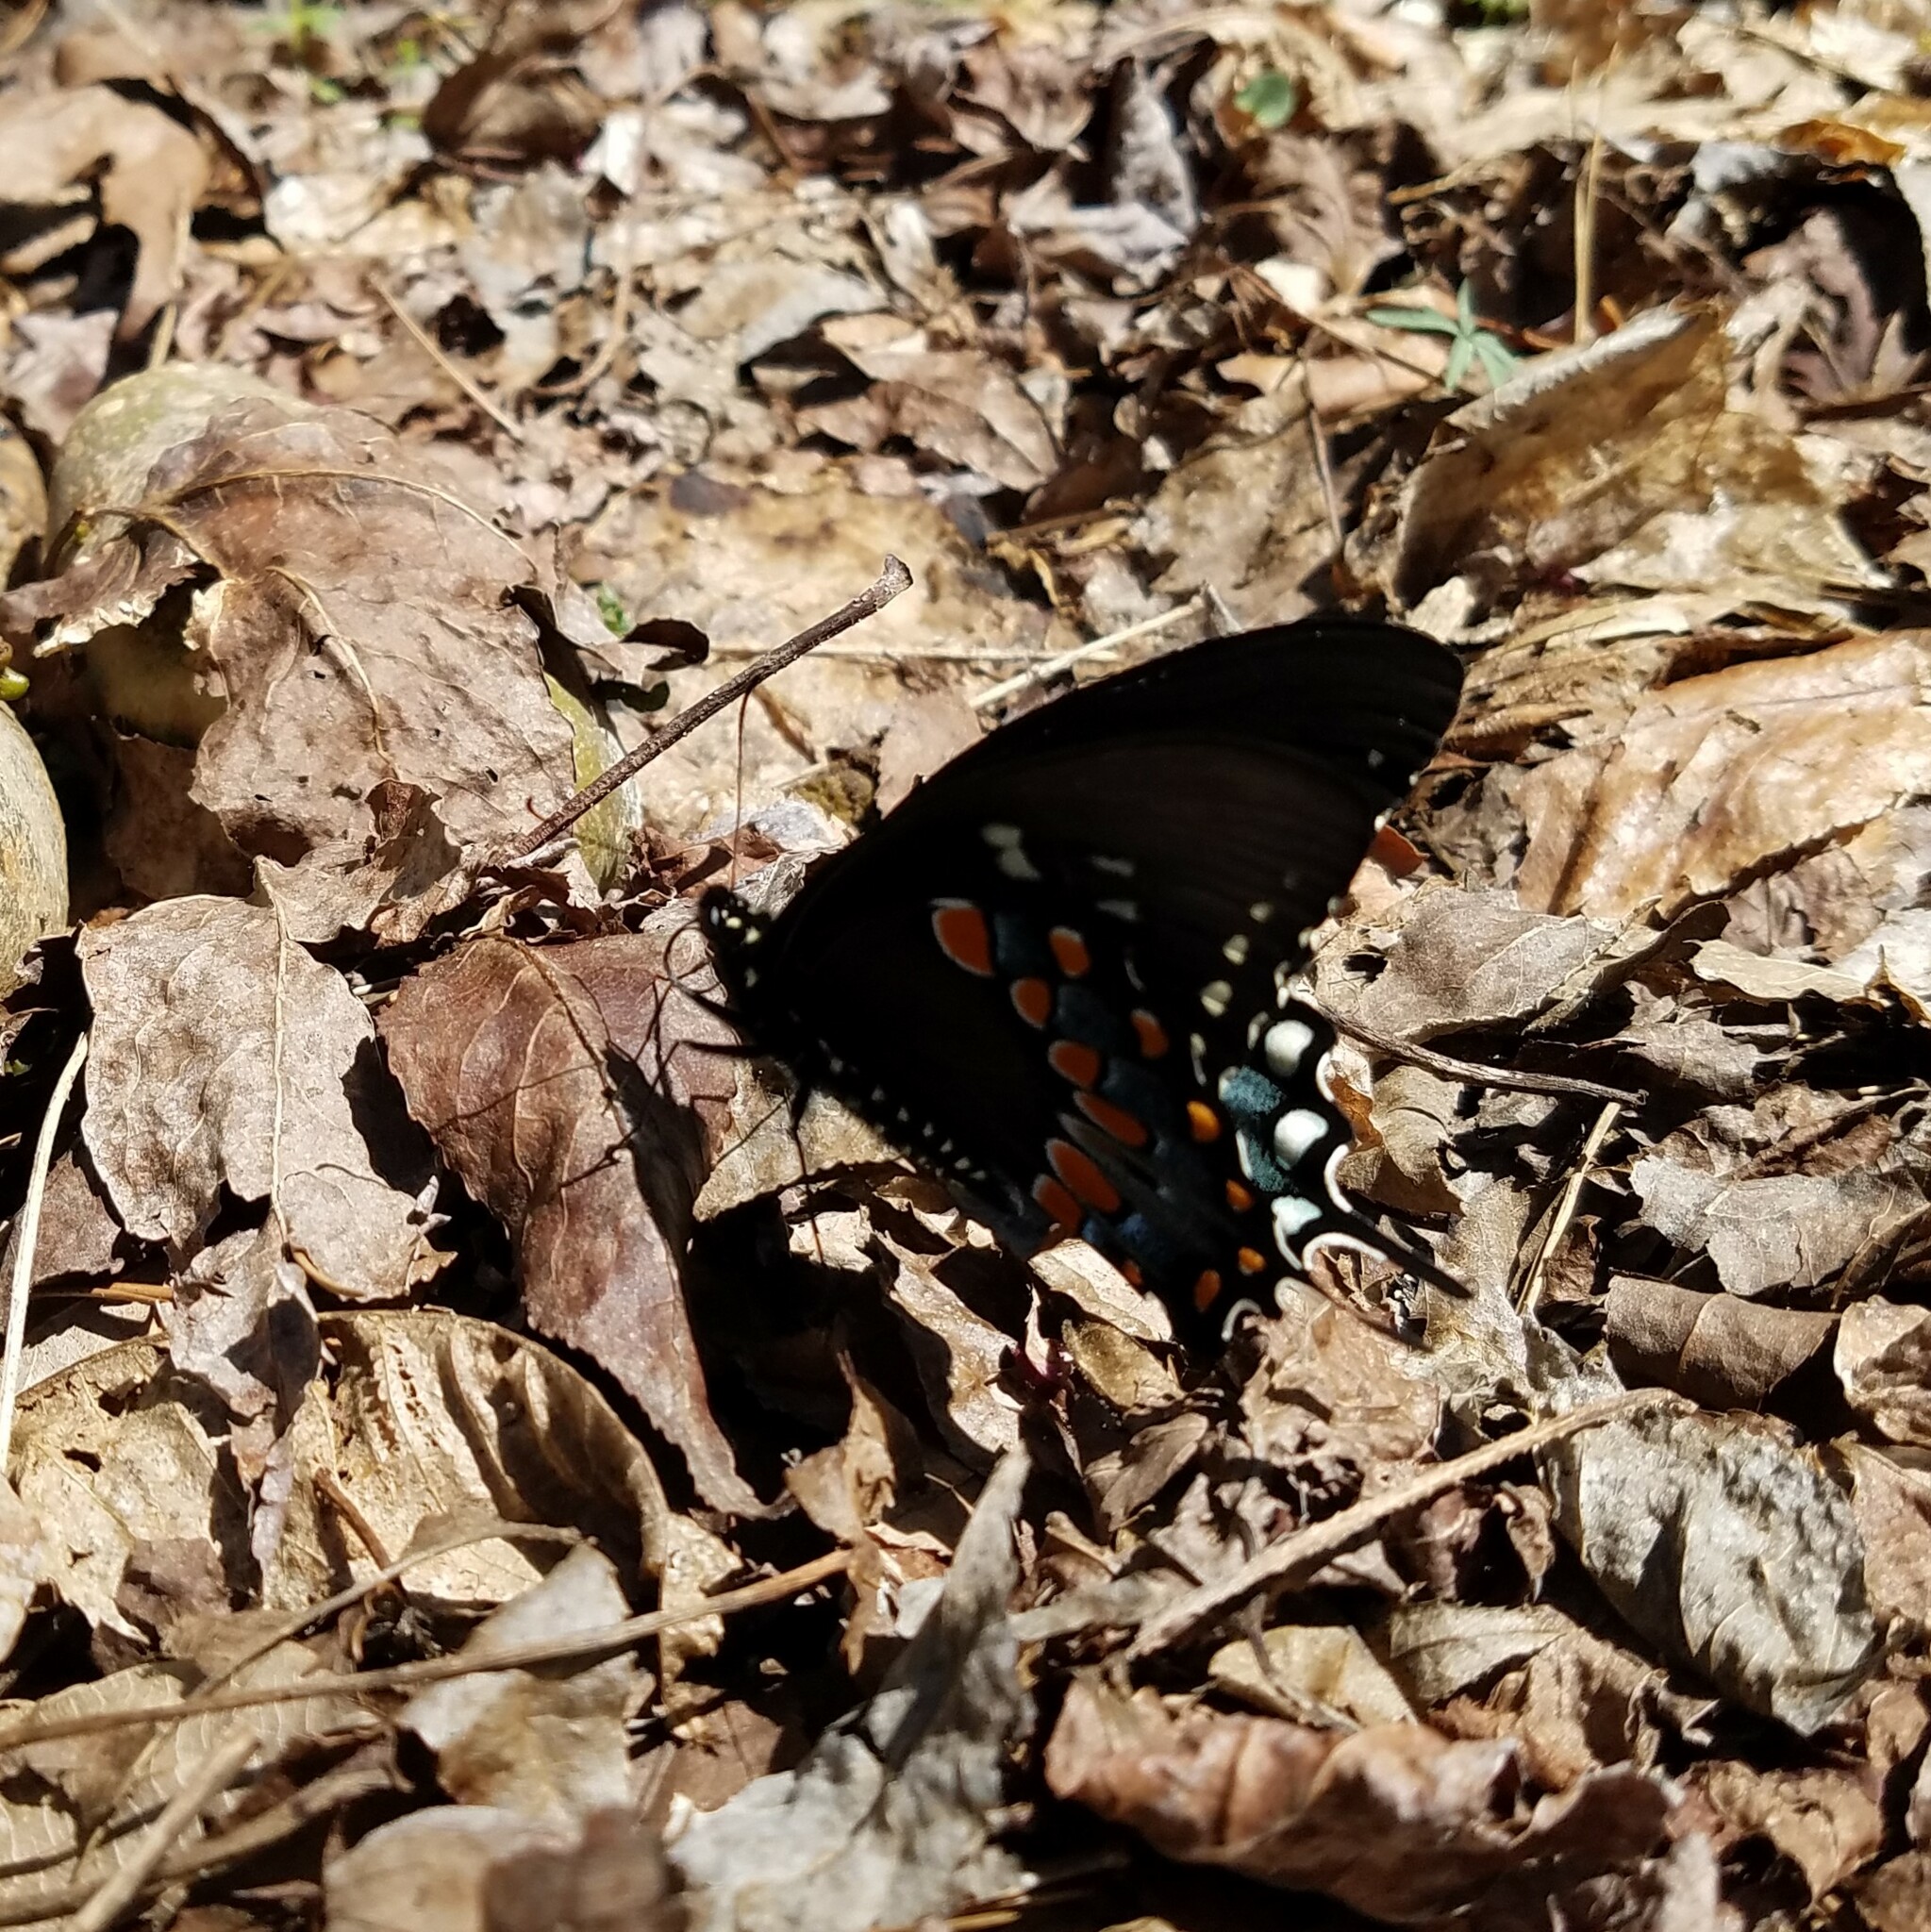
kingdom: Animalia
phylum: Arthropoda
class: Insecta
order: Lepidoptera
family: Papilionidae
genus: Papilio
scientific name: Papilio troilus
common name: Spicebush swallowtail
